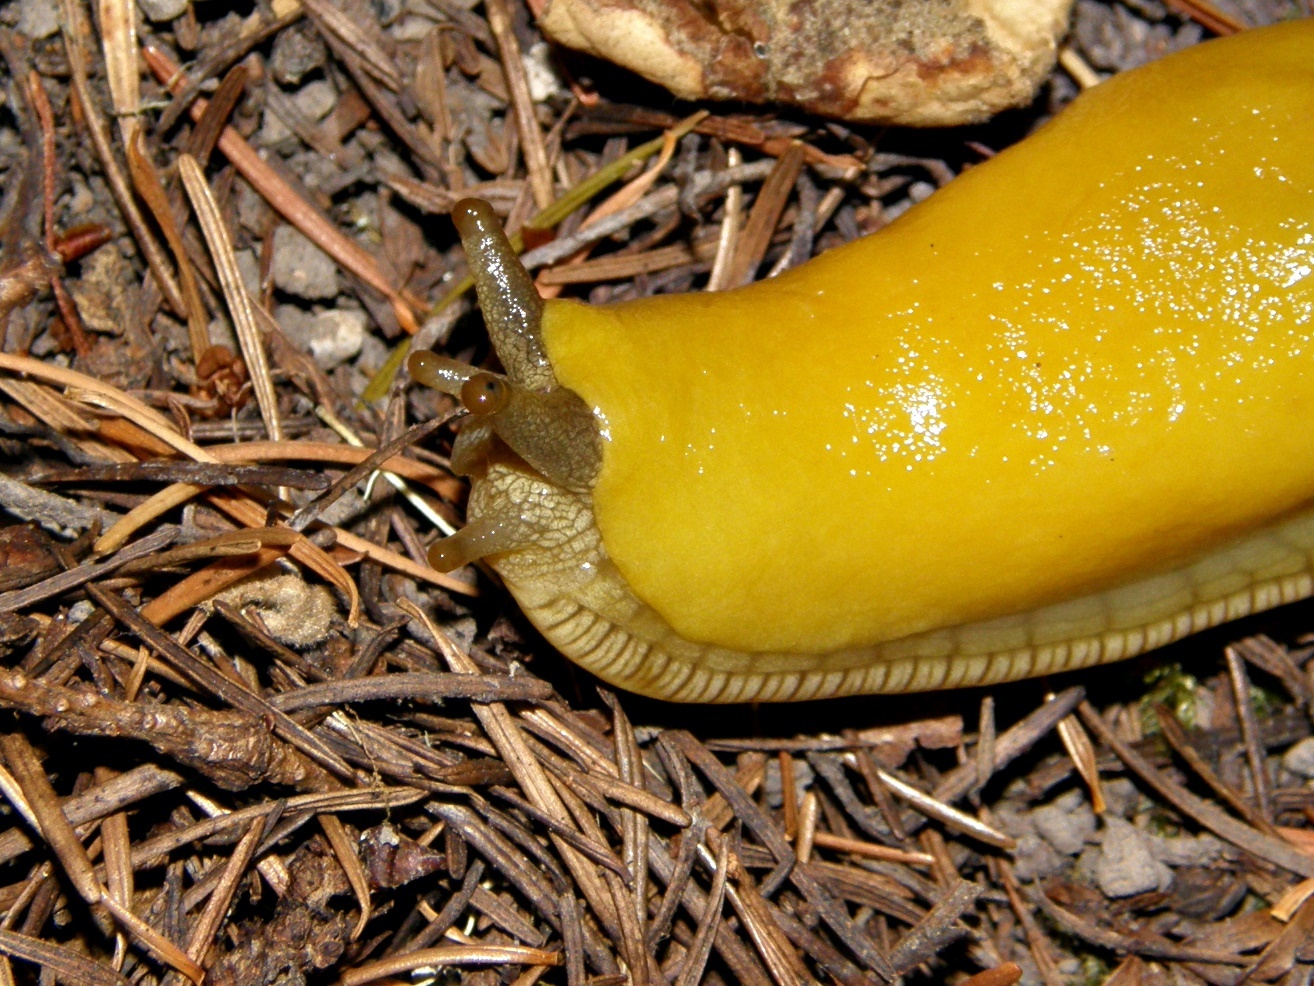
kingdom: Animalia
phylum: Mollusca
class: Gastropoda
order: Stylommatophora
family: Ariolimacidae
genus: Ariolimax
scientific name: Ariolimax californicus
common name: California banana slug
